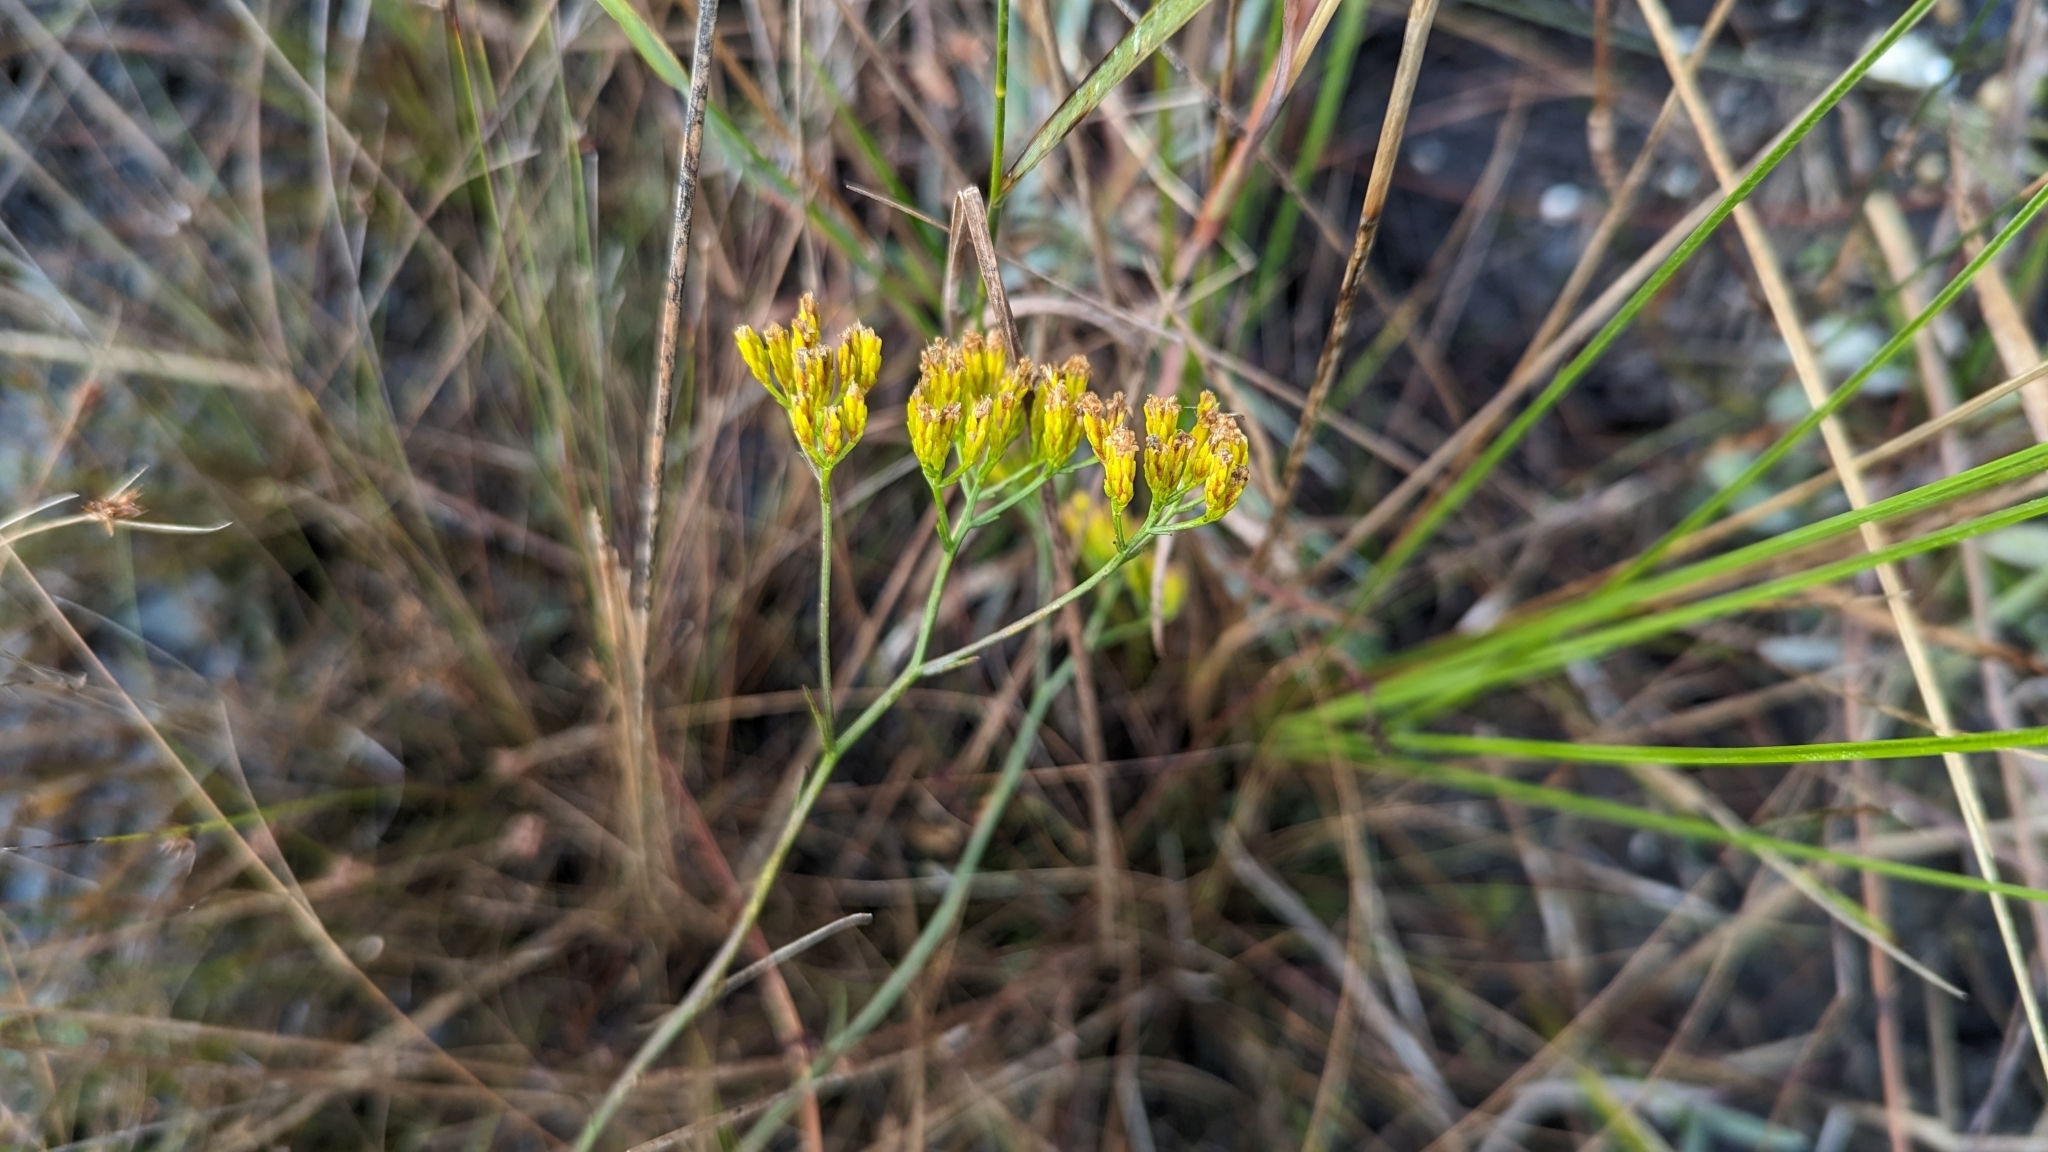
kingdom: Plantae
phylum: Tracheophyta
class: Magnoliopsida
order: Asterales
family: Asteraceae
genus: Bigelowia
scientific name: Bigelowia nudata
